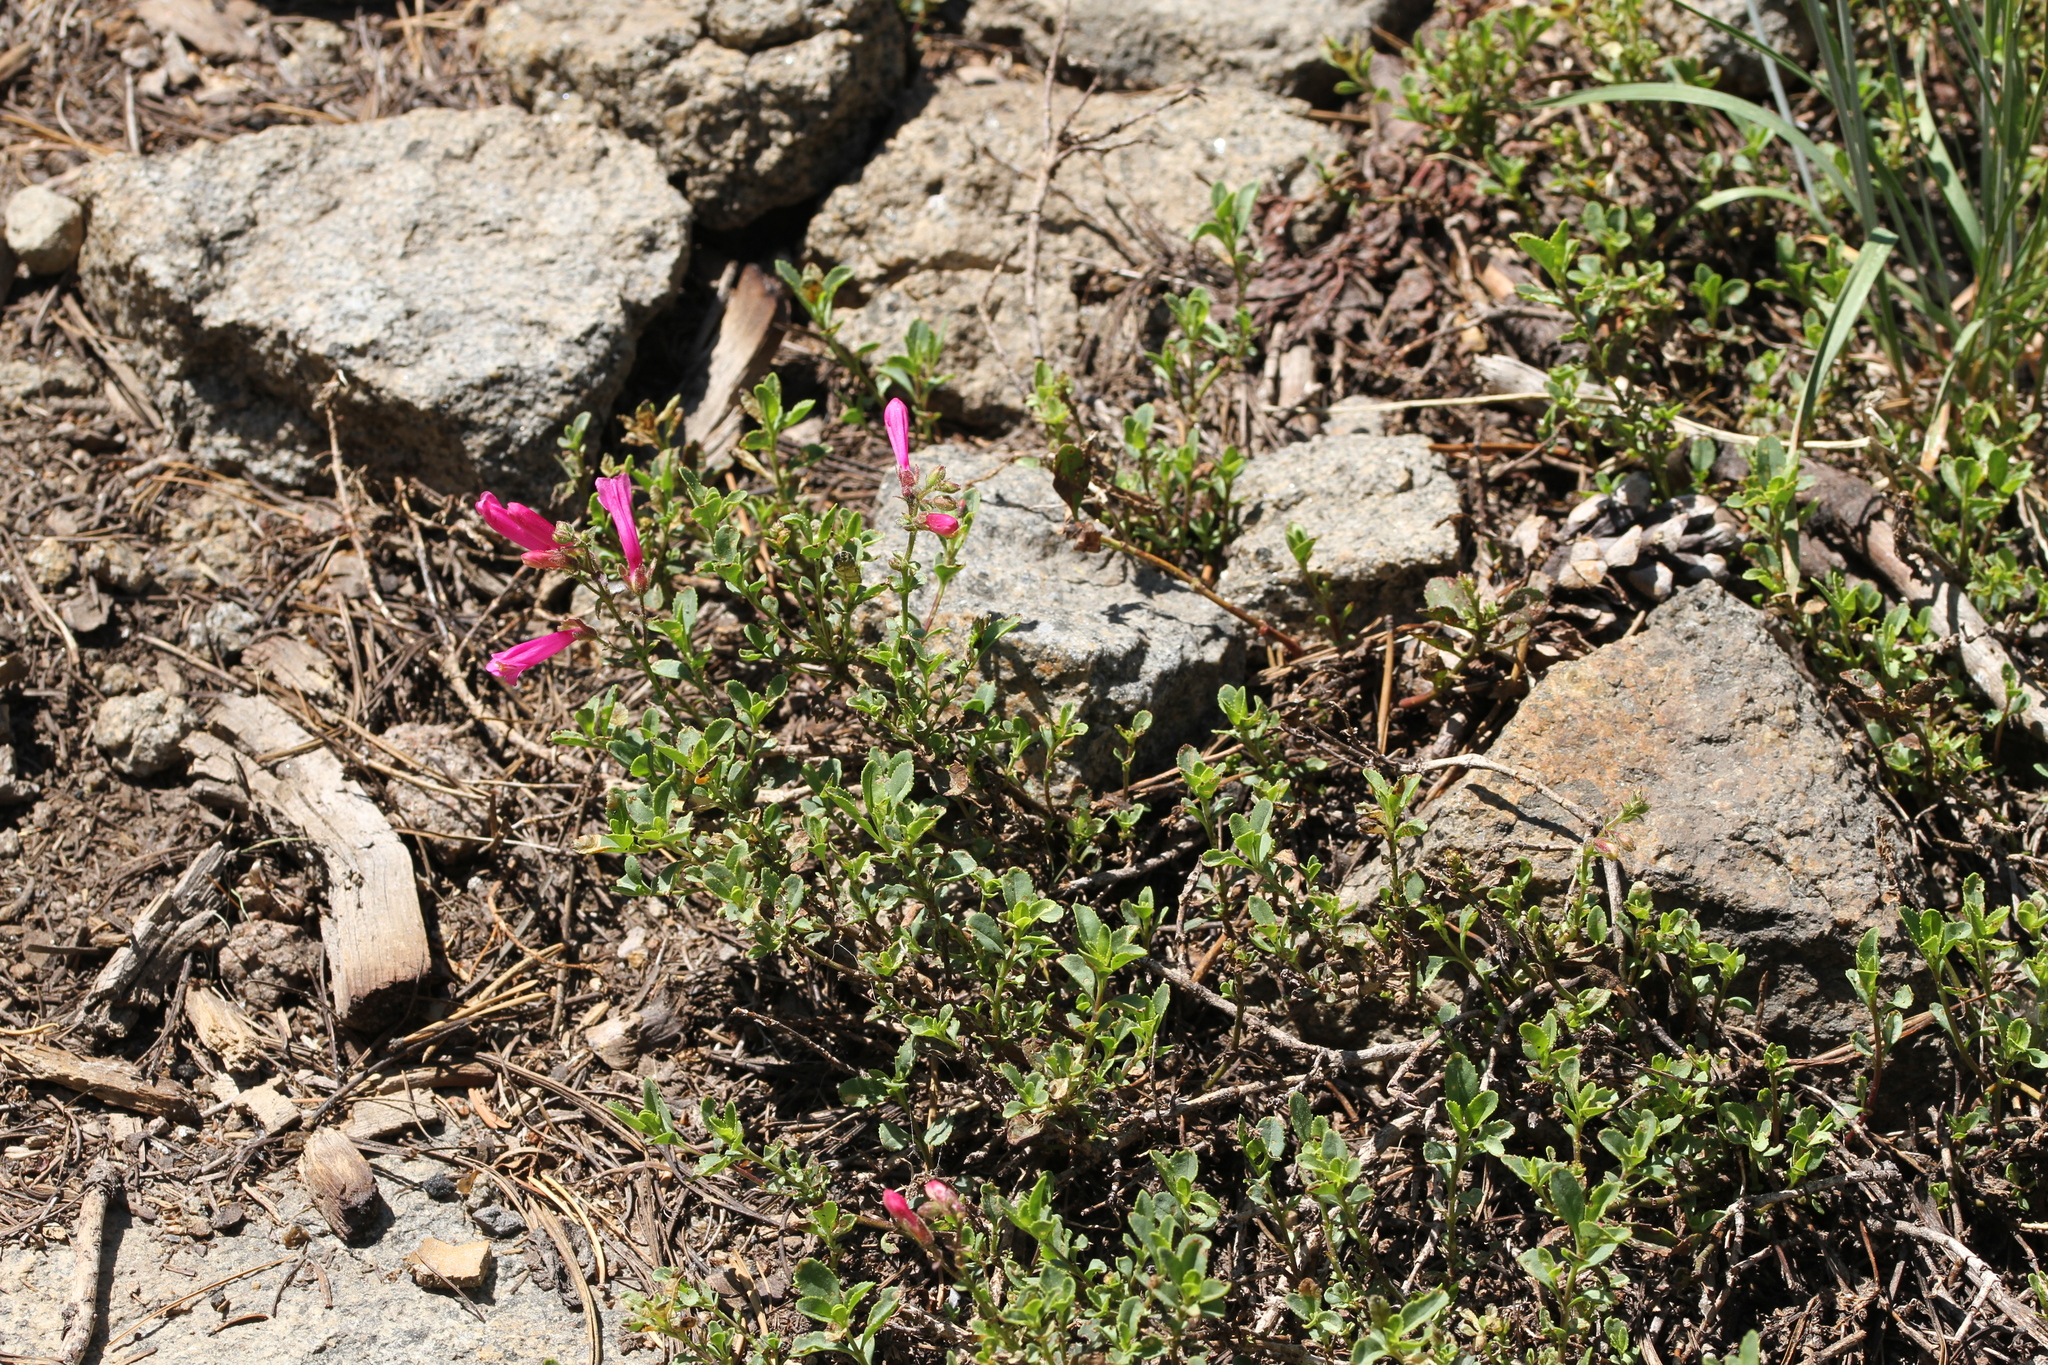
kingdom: Plantae
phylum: Tracheophyta
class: Magnoliopsida
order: Lamiales
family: Plantaginaceae
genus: Penstemon
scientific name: Penstemon newberryi
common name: Mountain-pride
